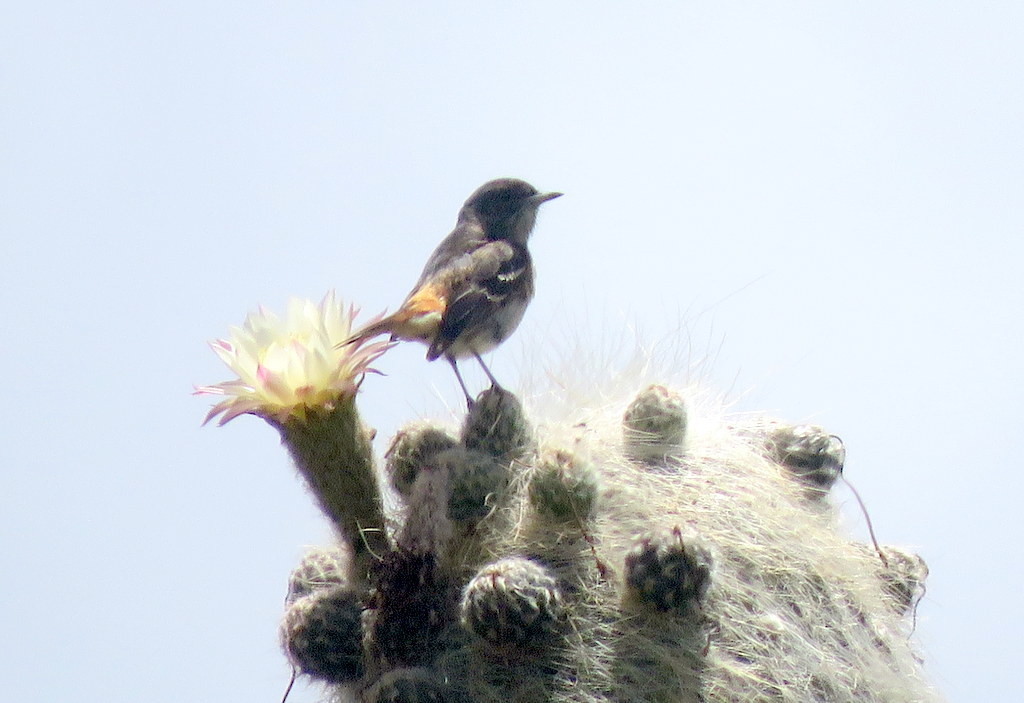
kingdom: Animalia
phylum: Chordata
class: Aves
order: Passeriformes
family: Tyrannidae
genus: Knipolegus
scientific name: Knipolegus aterrimus
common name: White-winged black tyrant
